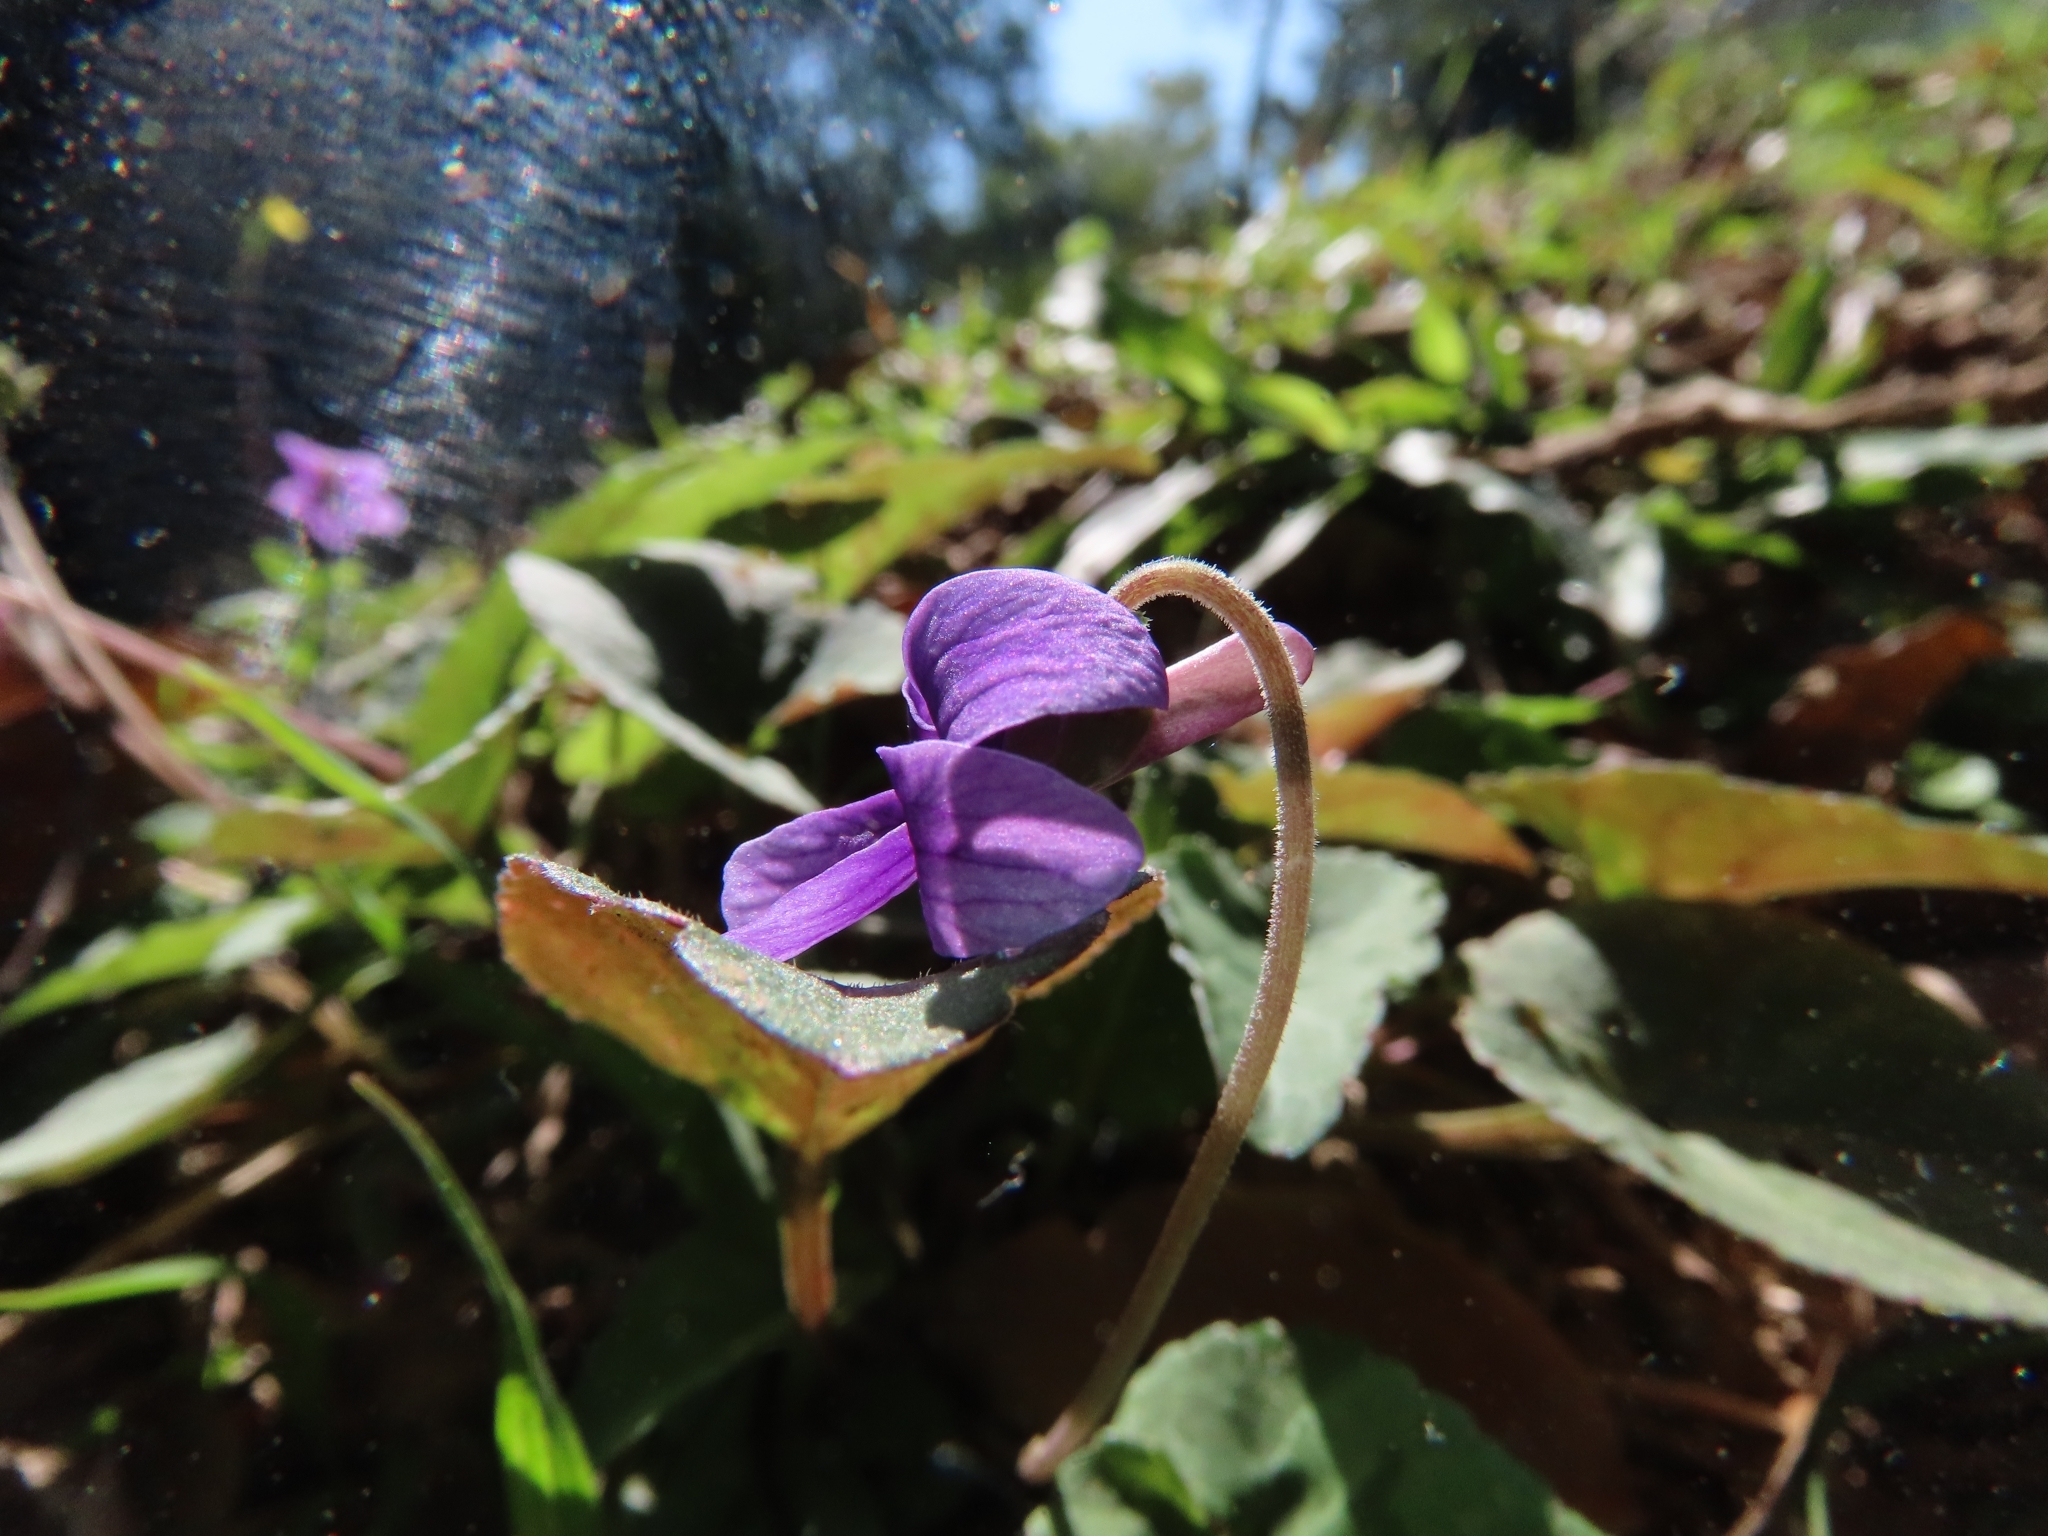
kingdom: Plantae
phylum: Tracheophyta
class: Magnoliopsida
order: Malpighiales
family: Violaceae
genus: Viola
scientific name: Viola
